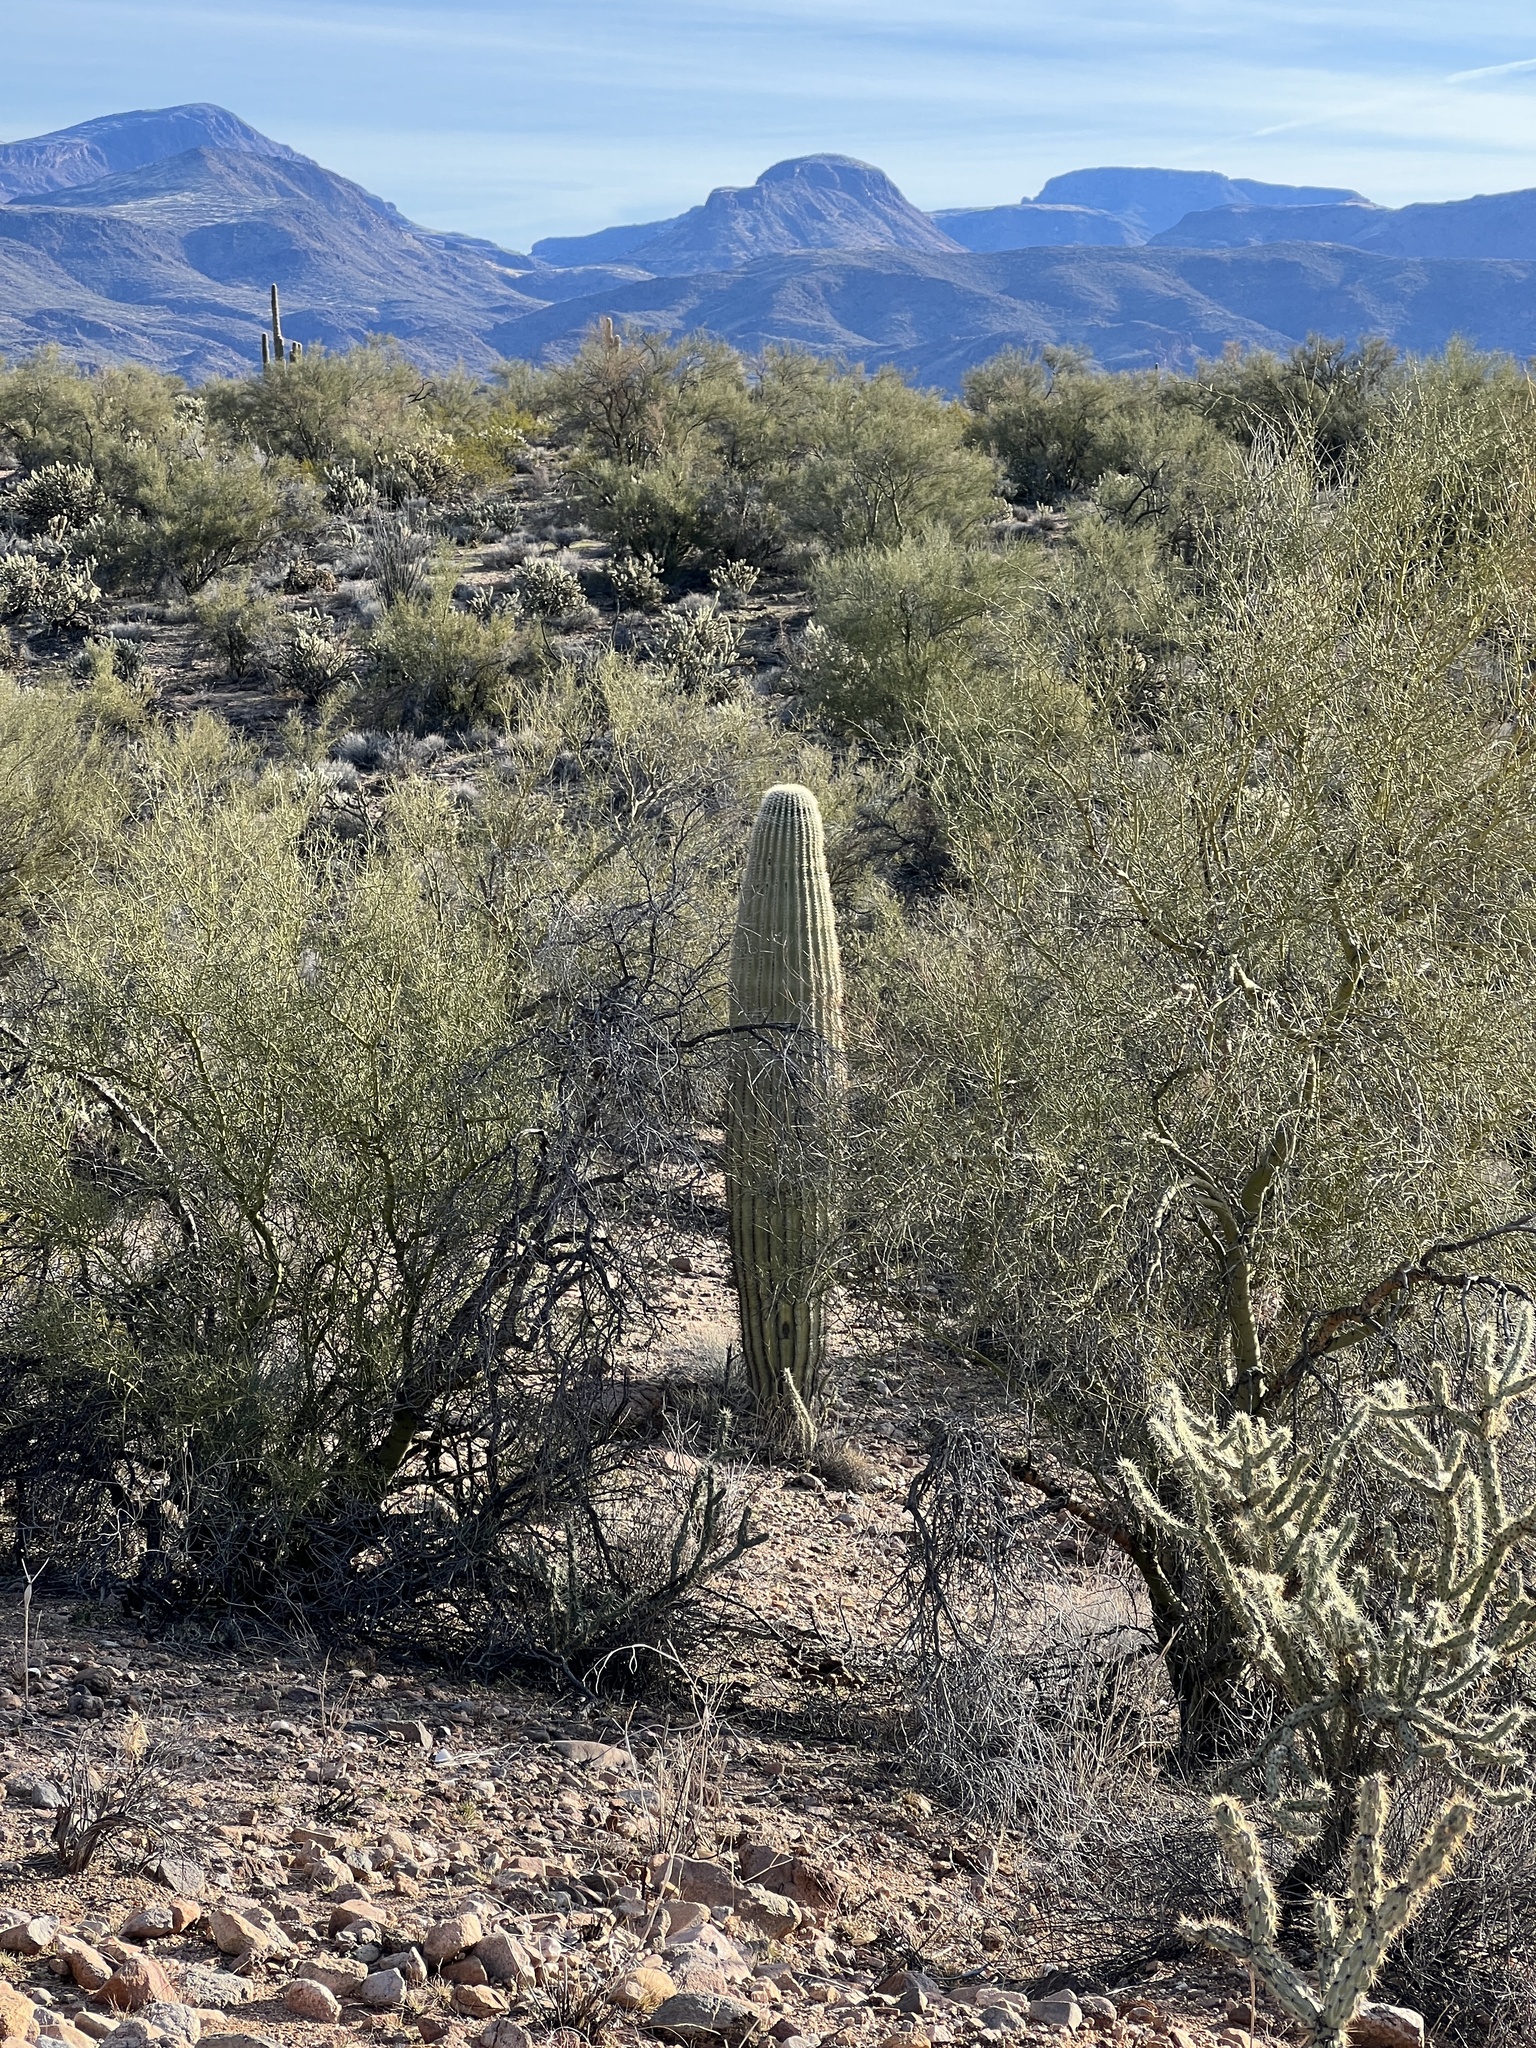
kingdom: Plantae
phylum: Tracheophyta
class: Magnoliopsida
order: Caryophyllales
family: Cactaceae
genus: Carnegiea
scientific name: Carnegiea gigantea
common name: Saguaro
